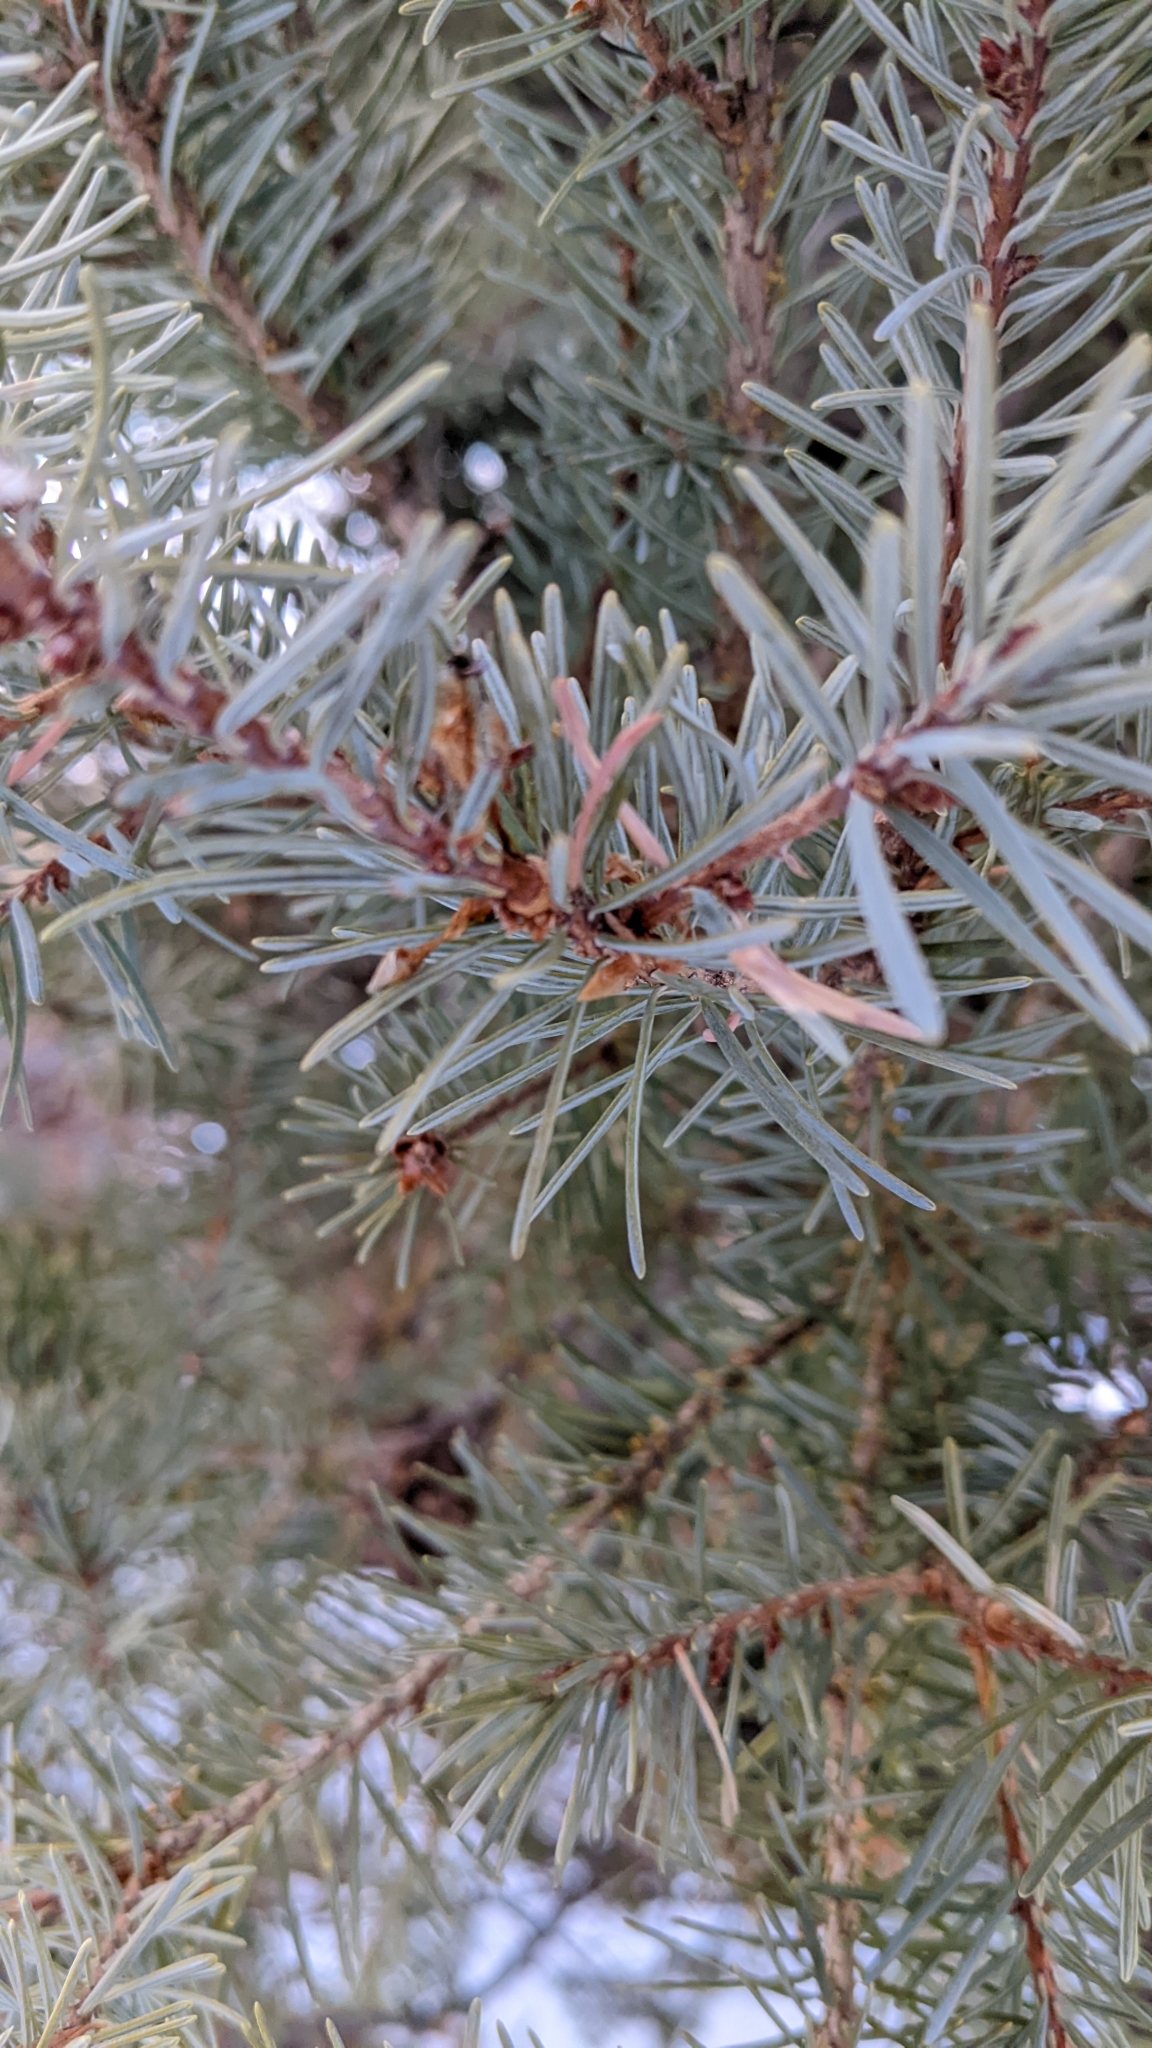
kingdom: Plantae
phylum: Tracheophyta
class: Pinopsida
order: Pinales
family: Pinaceae
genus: Pseudotsuga
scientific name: Pseudotsuga menziesii
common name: Douglas fir
